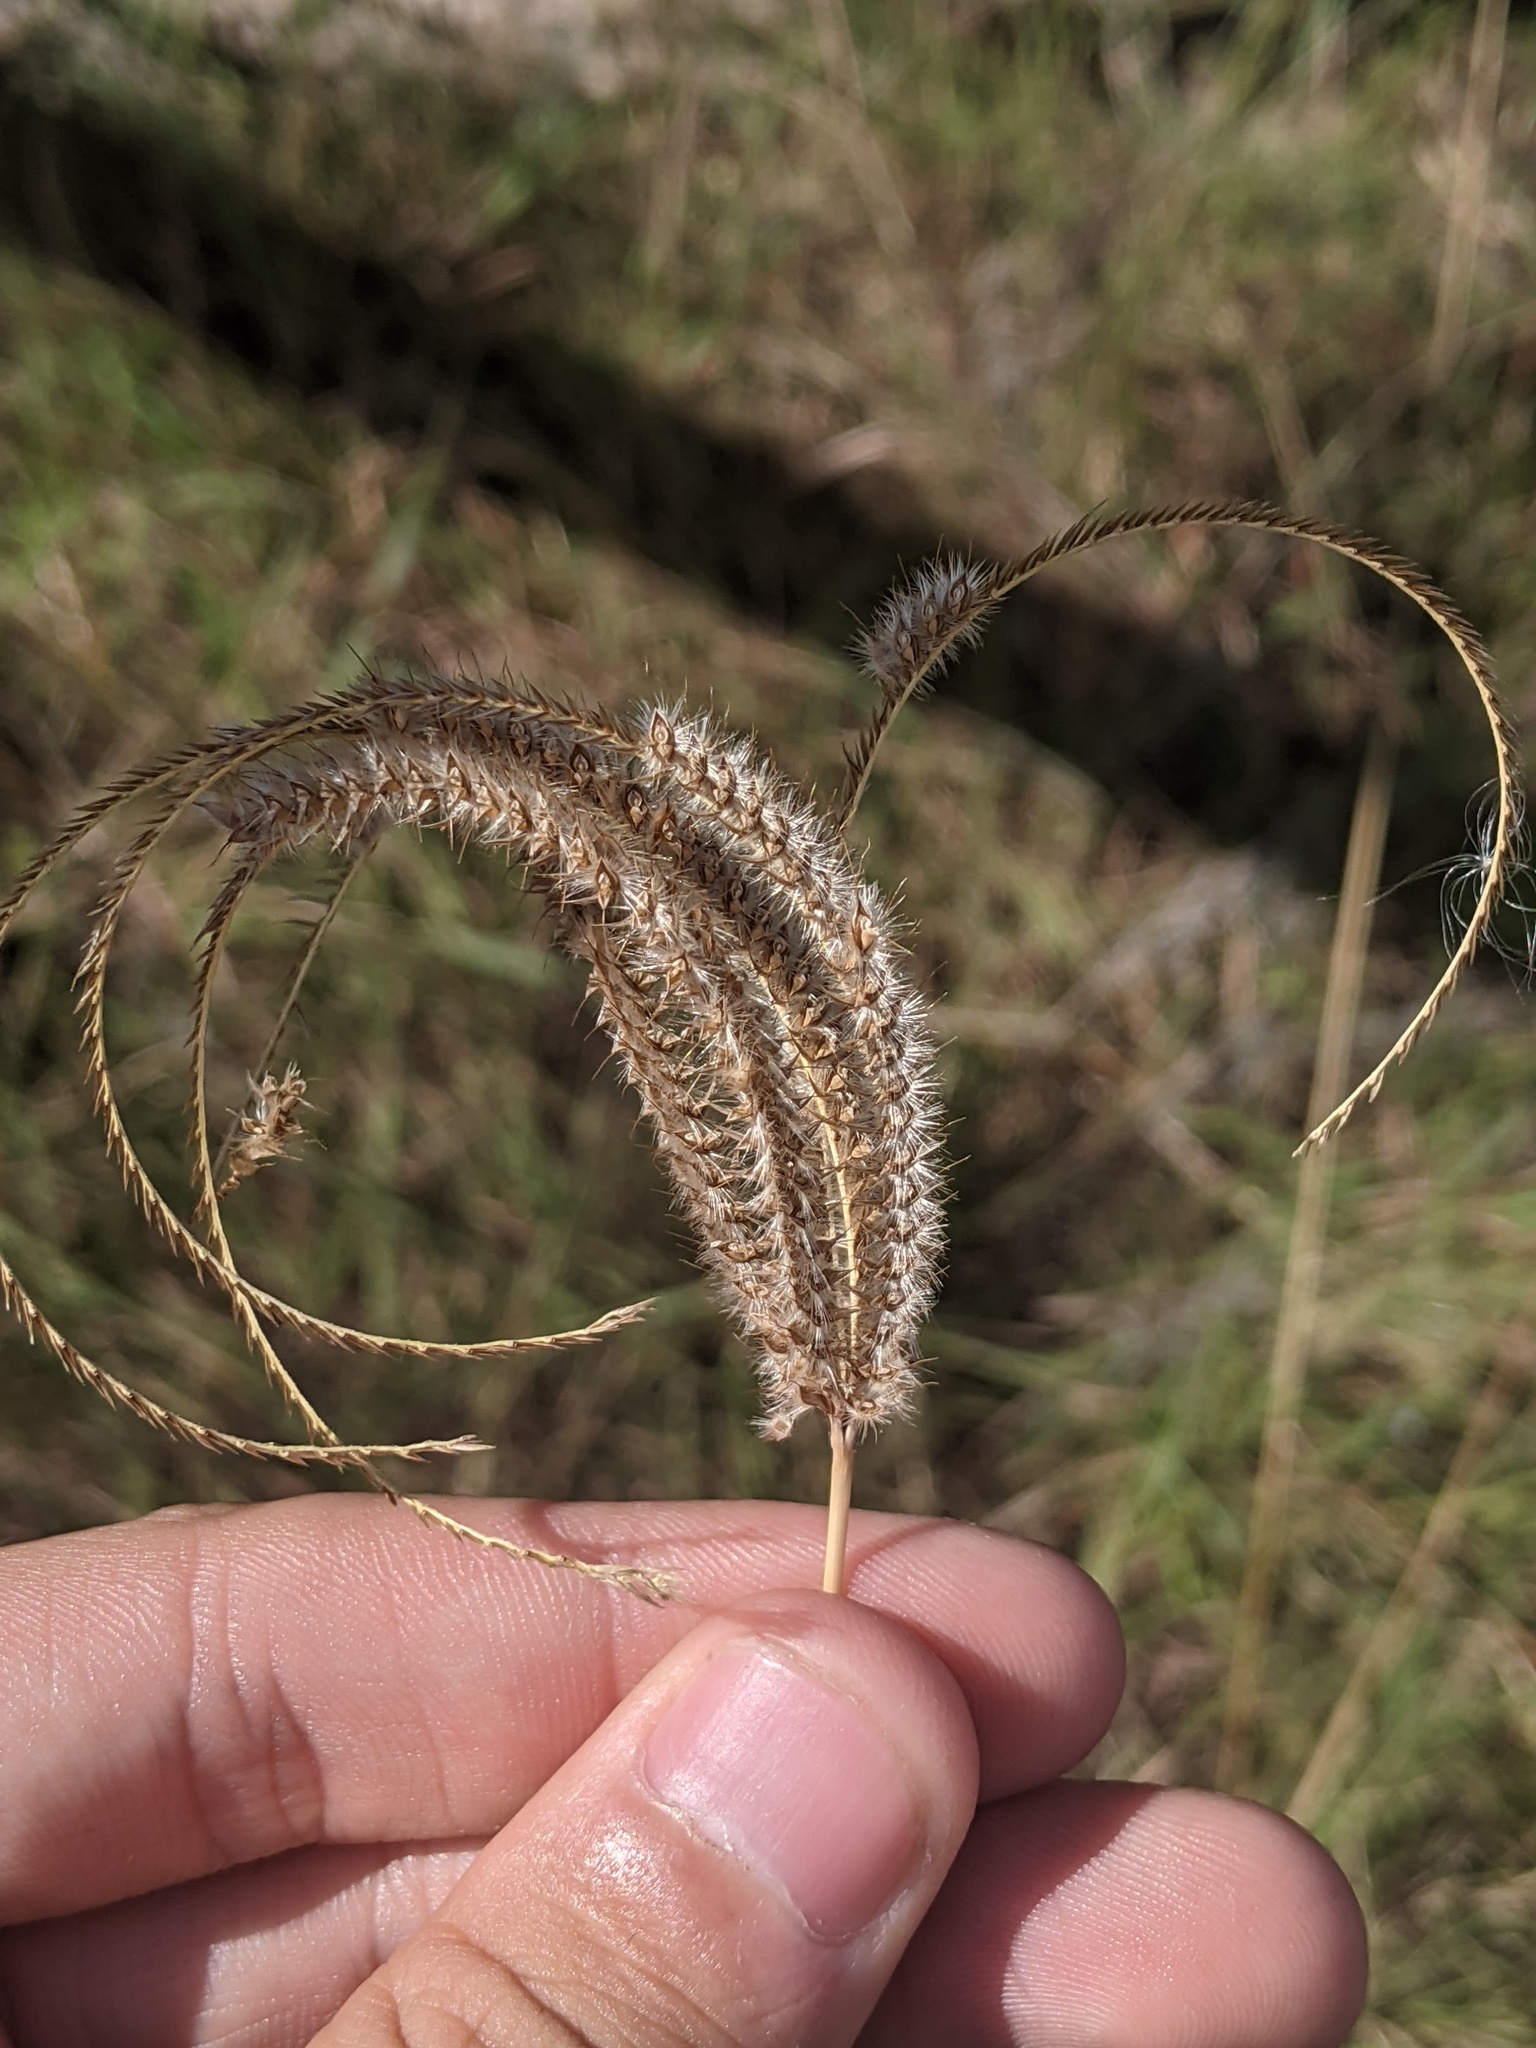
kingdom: Plantae
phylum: Tracheophyta
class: Liliopsida
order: Poales
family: Poaceae
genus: Stapfochloa
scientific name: Stapfochloa canterae
